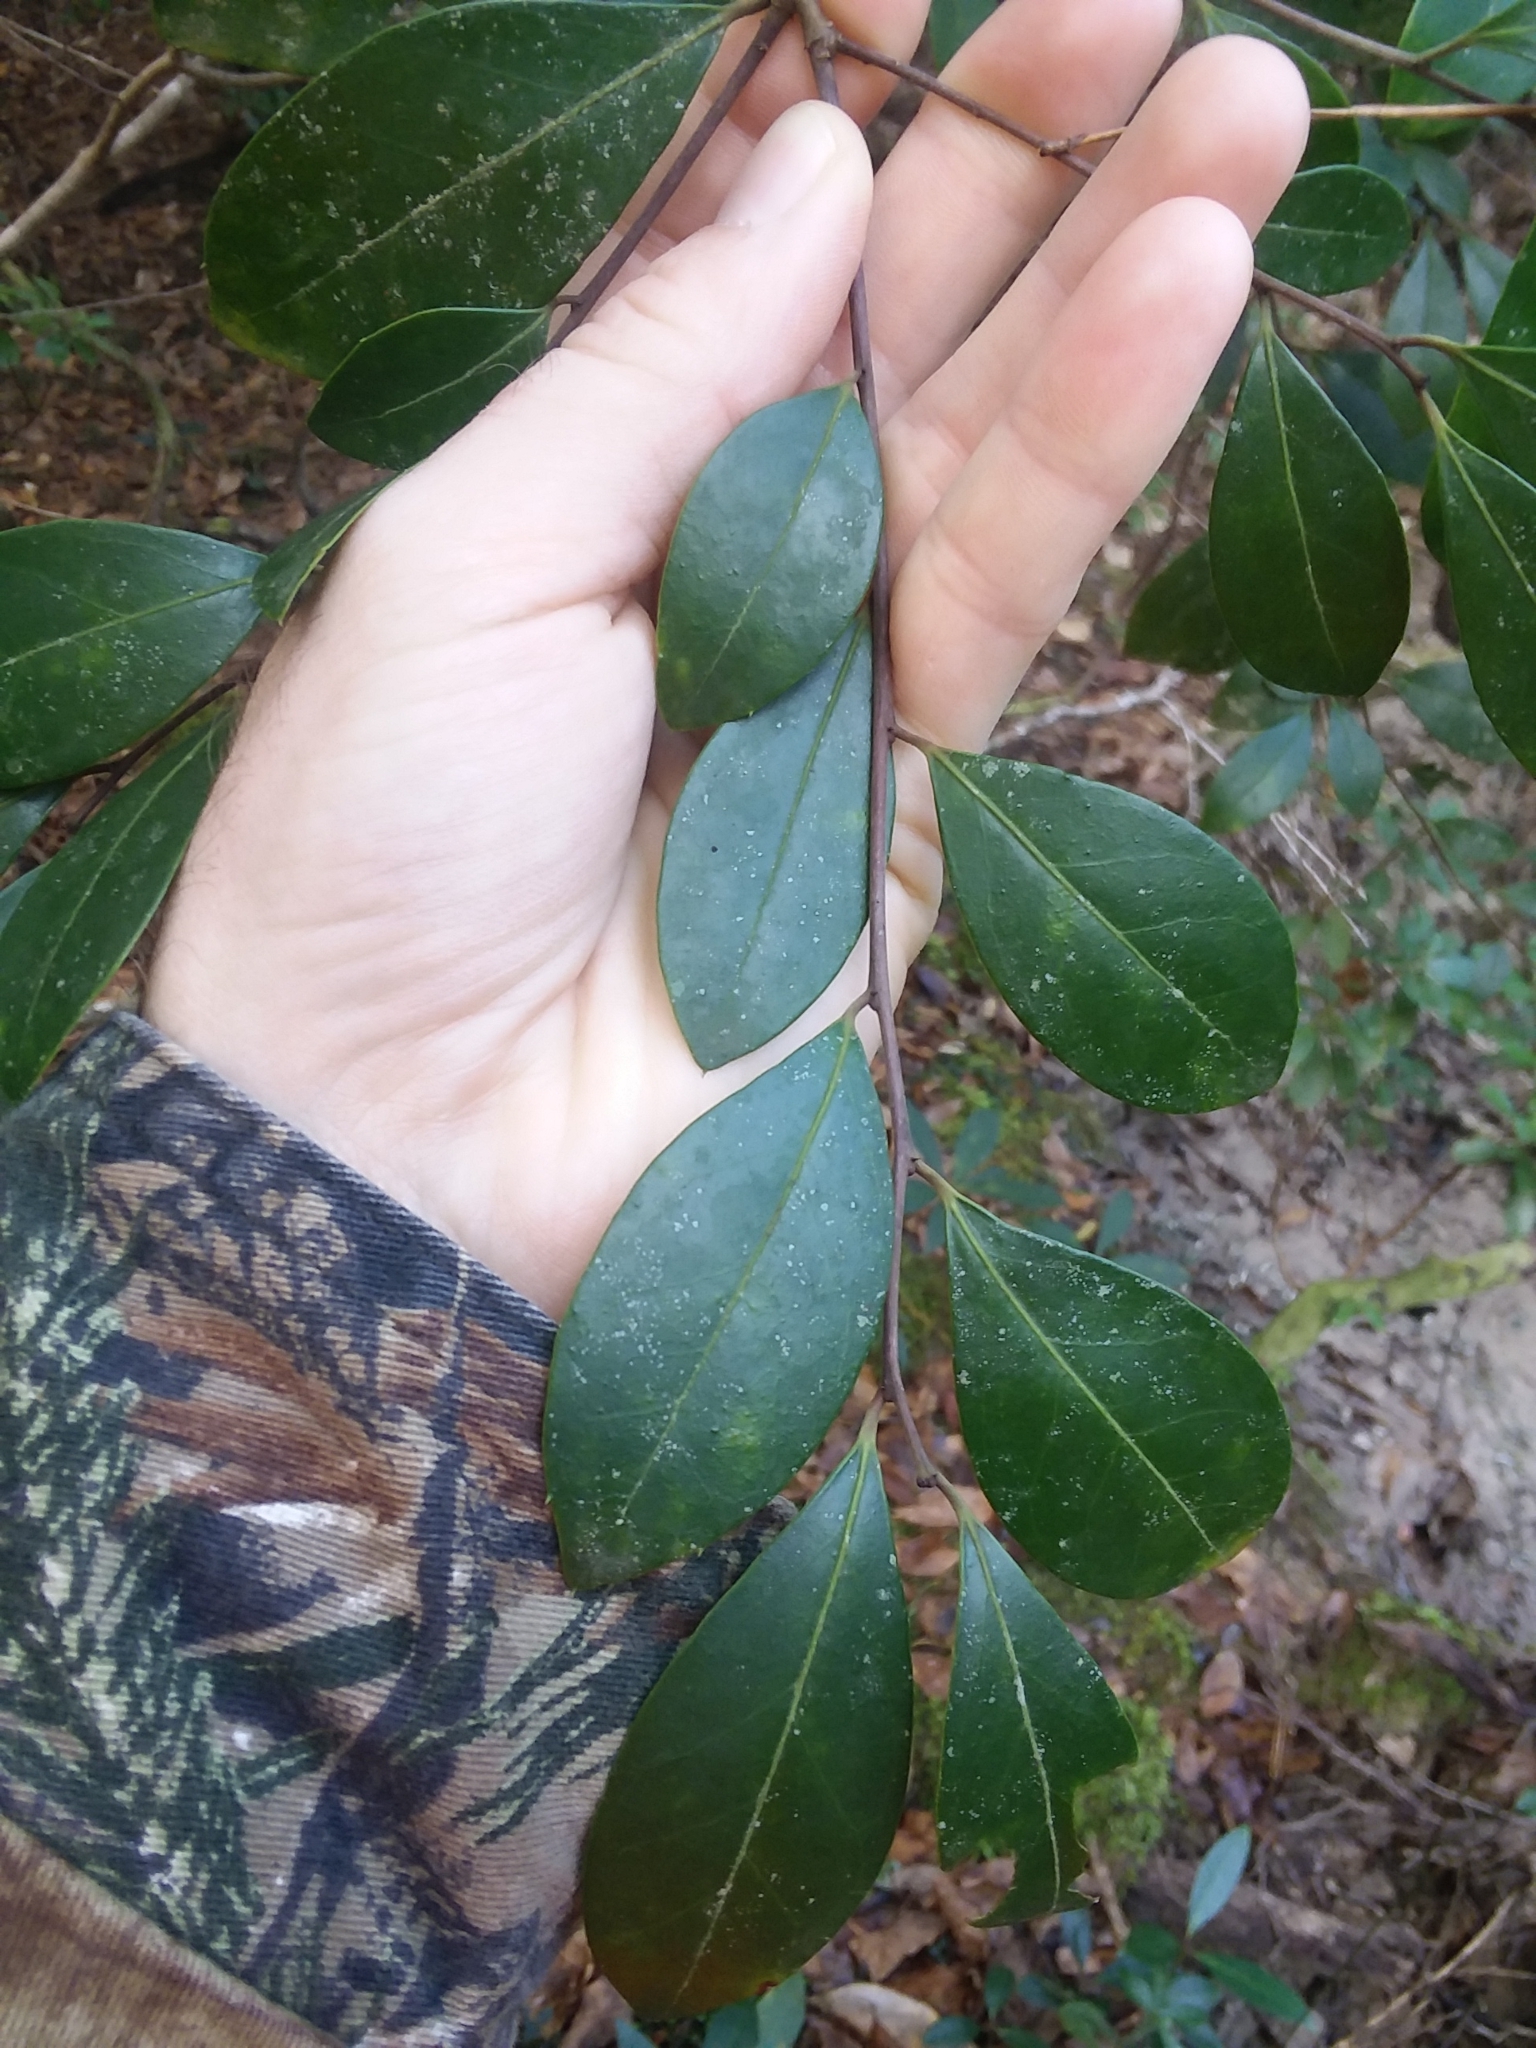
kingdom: Plantae
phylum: Tracheophyta
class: Magnoliopsida
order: Aquifoliales
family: Aquifoliaceae
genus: Ilex
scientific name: Ilex coriacea
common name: Sweet gallberry
